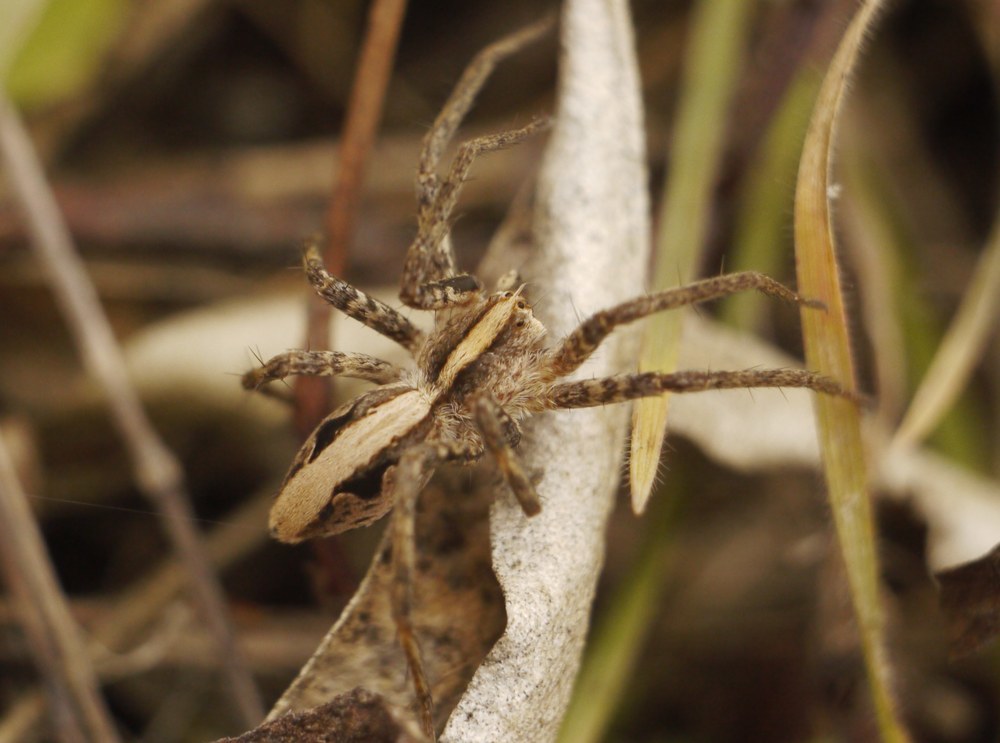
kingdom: Animalia
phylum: Arthropoda
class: Arachnida
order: Araneae
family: Pisauridae
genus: Pisaura
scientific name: Pisaura
